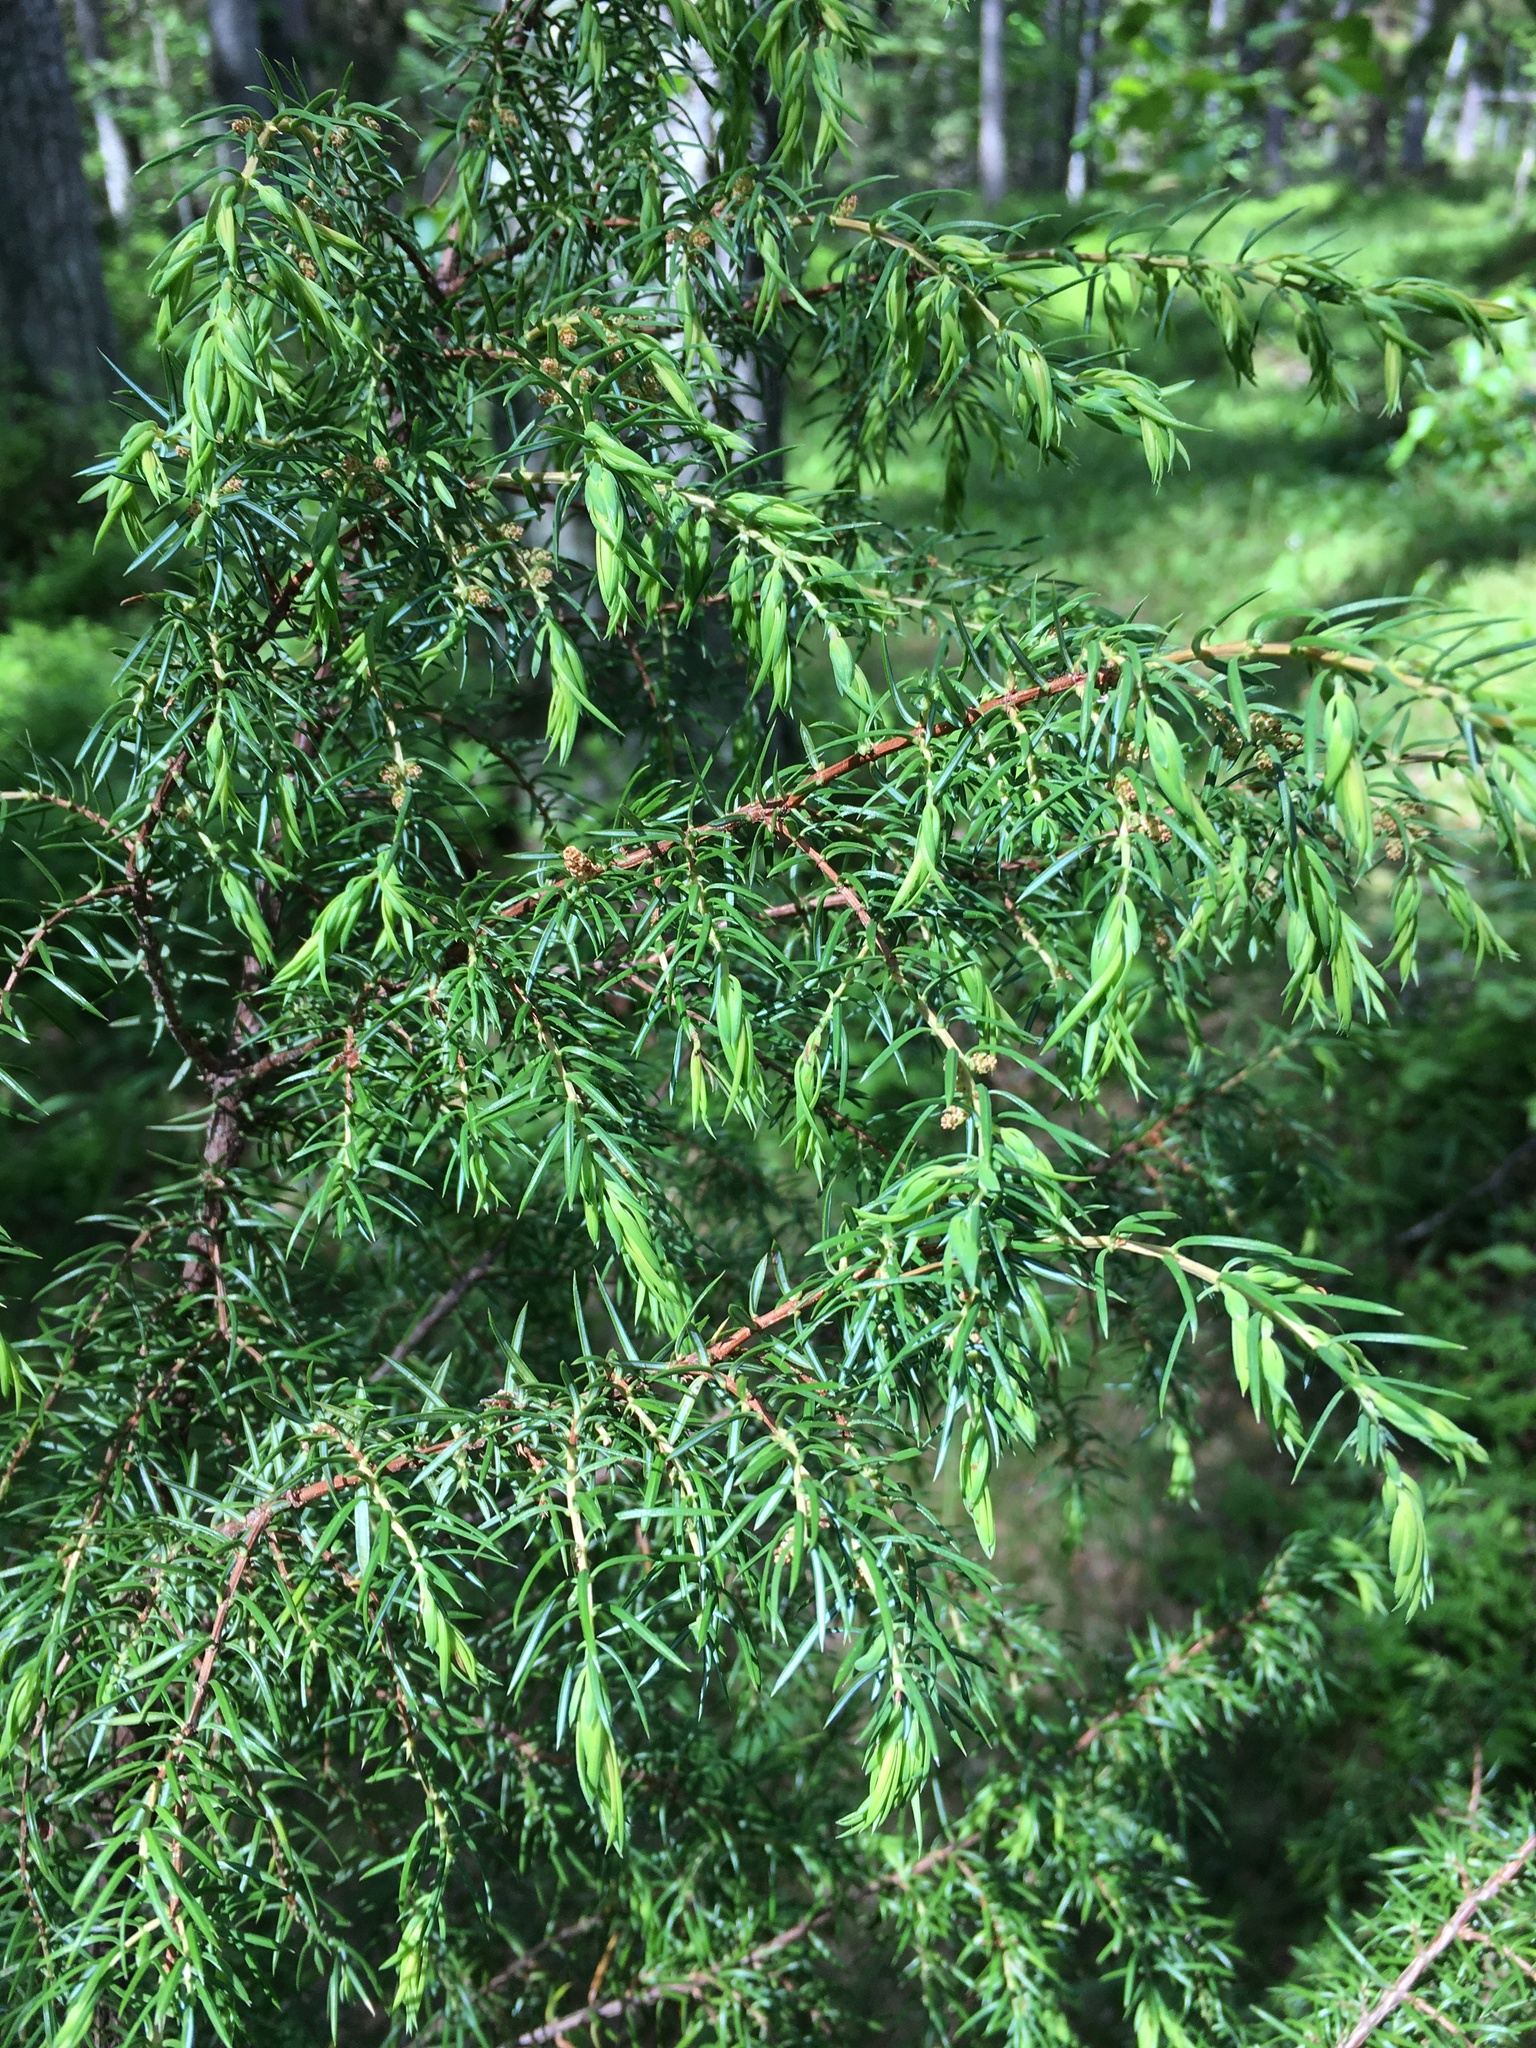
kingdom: Plantae
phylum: Tracheophyta
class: Pinopsida
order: Pinales
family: Cupressaceae
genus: Juniperus
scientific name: Juniperus communis
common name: Common juniper
